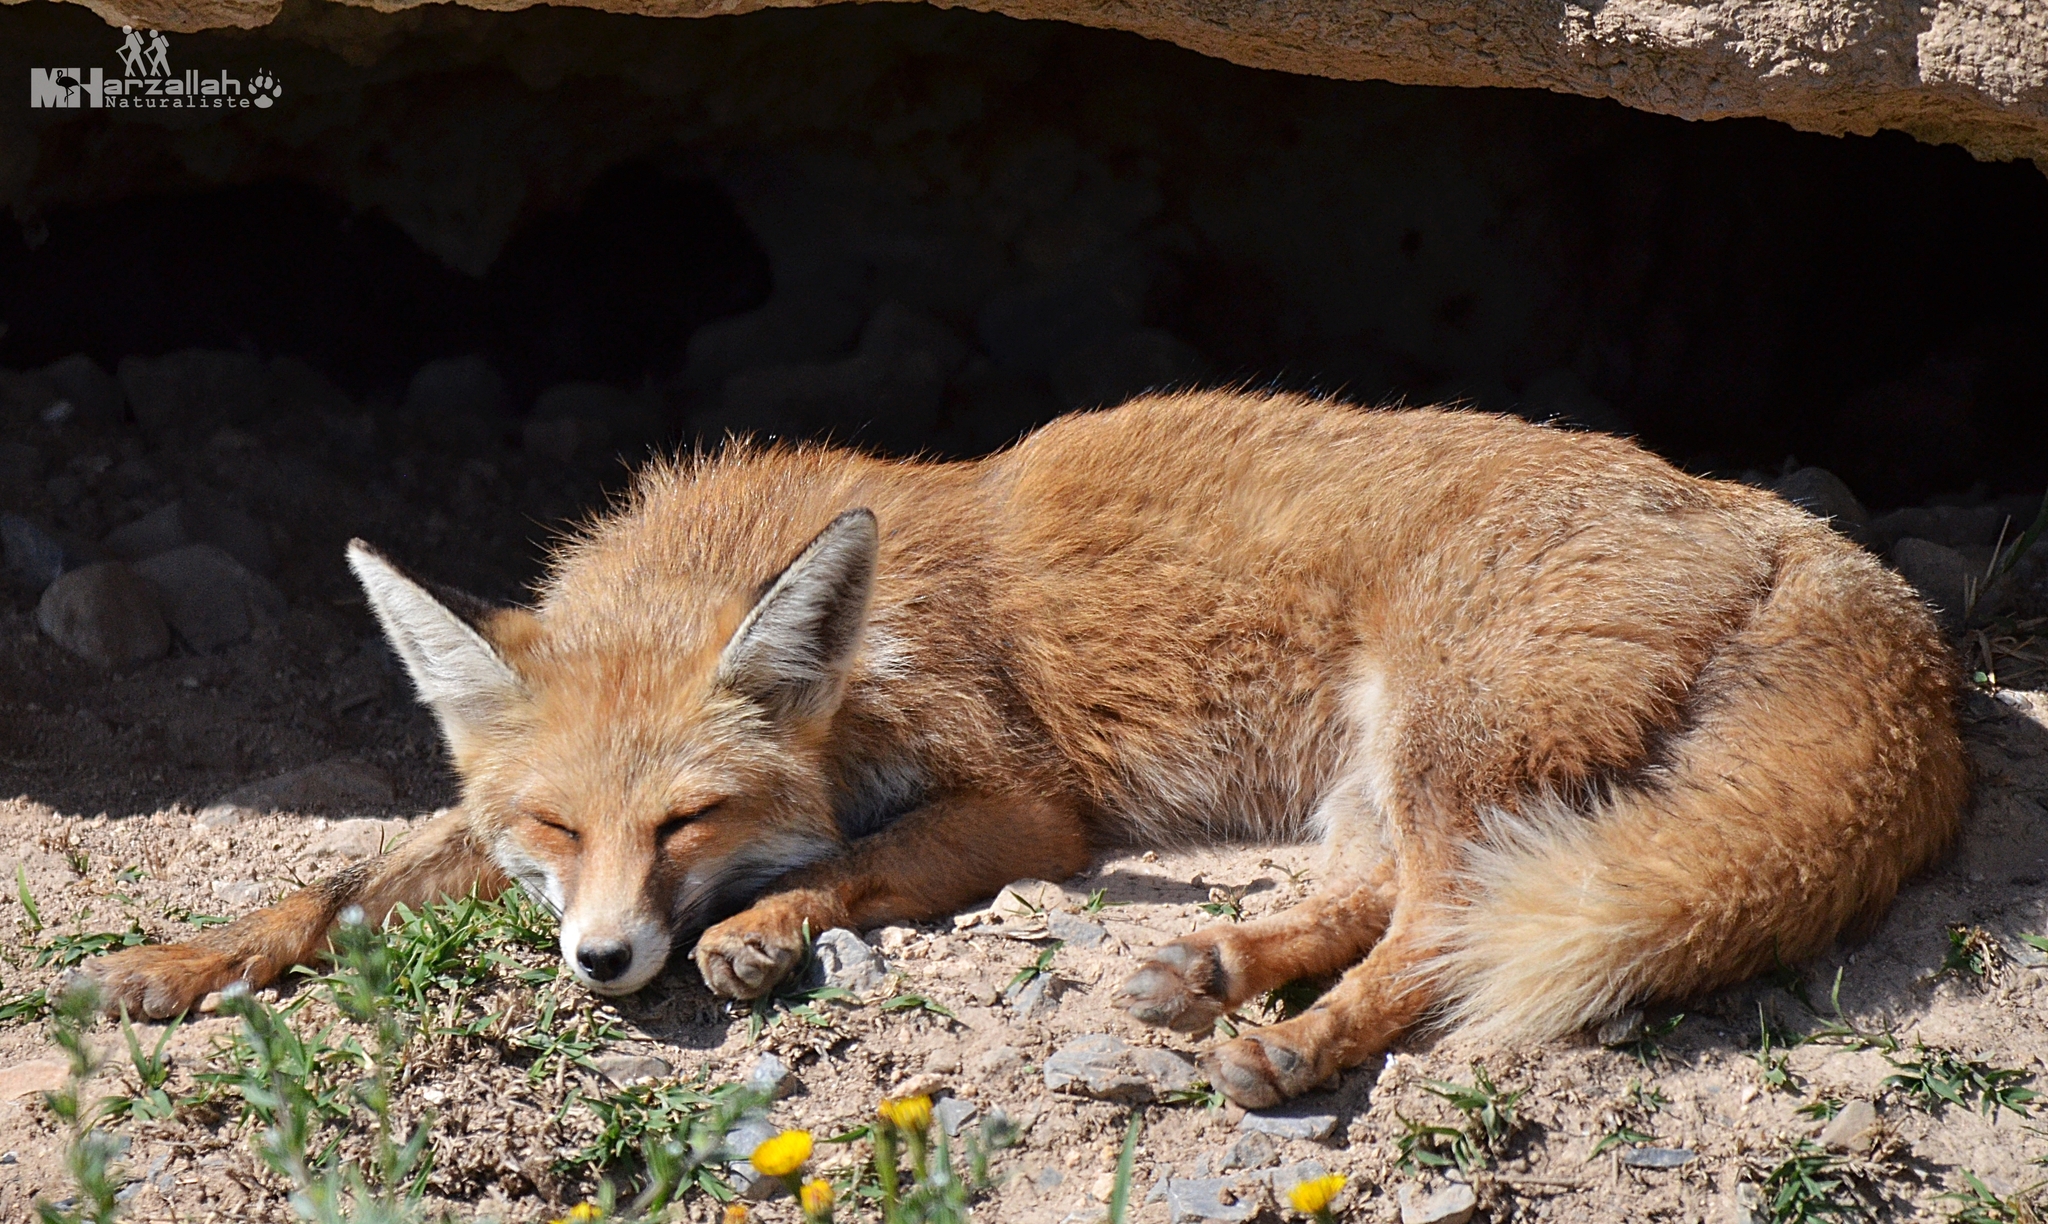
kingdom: Animalia
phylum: Chordata
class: Mammalia
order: Carnivora
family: Canidae
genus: Vulpes
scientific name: Vulpes vulpes
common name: Red fox
